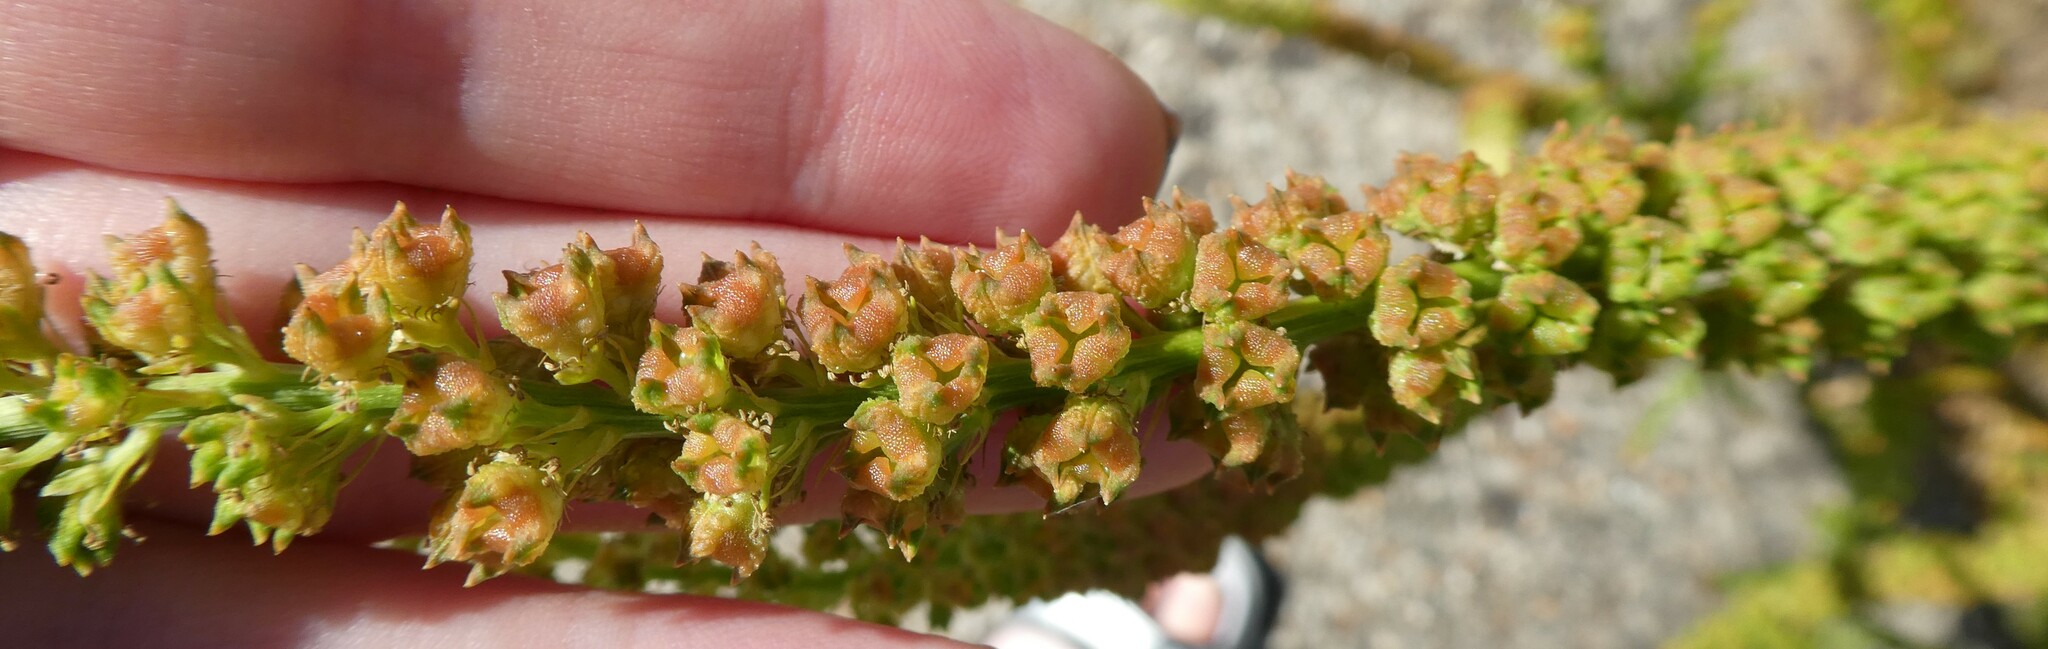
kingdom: Plantae
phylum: Tracheophyta
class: Magnoliopsida
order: Brassicales
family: Resedaceae
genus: Reseda
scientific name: Reseda luteola
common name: Weld
